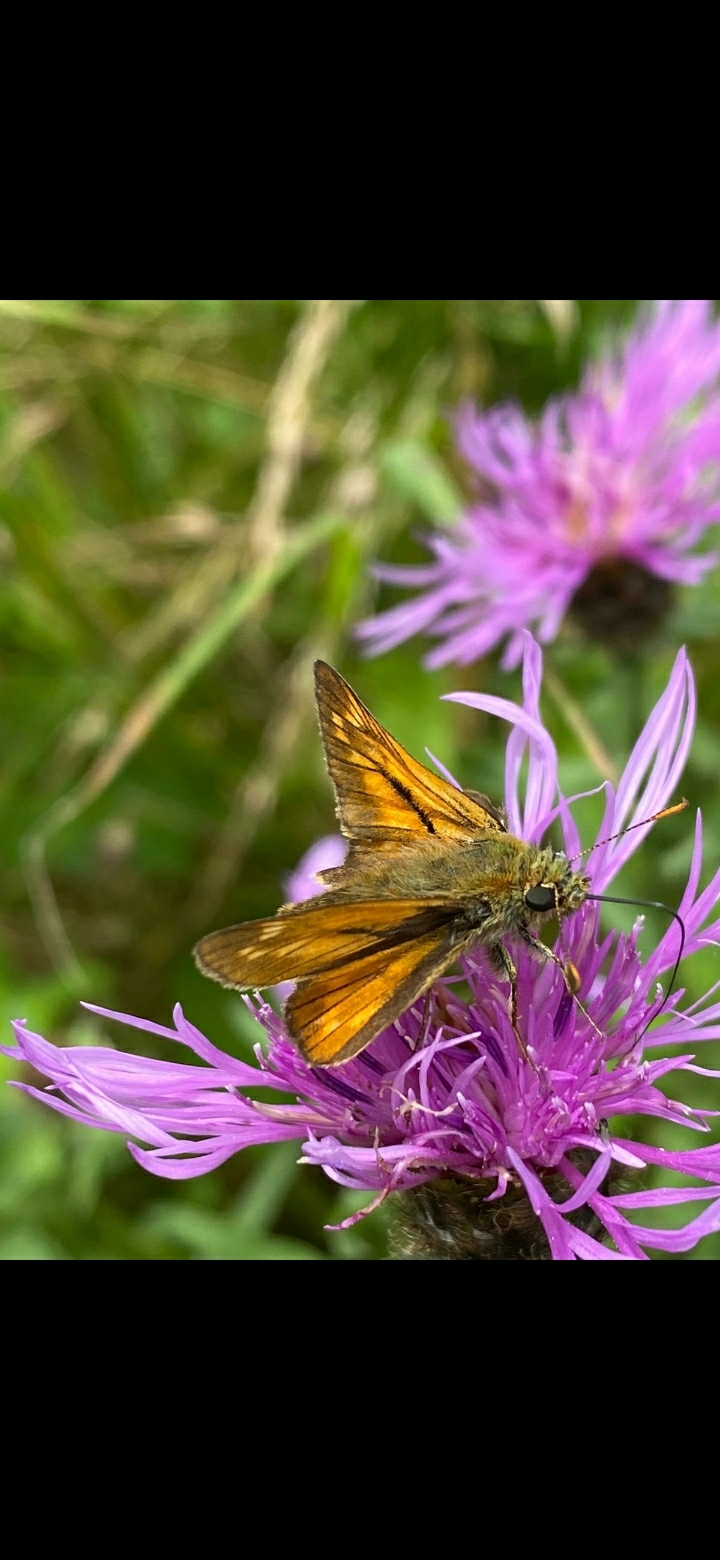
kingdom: Animalia
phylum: Arthropoda
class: Insecta
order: Lepidoptera
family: Hesperiidae
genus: Ochlodes
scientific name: Ochlodes venata
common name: Large skipper
